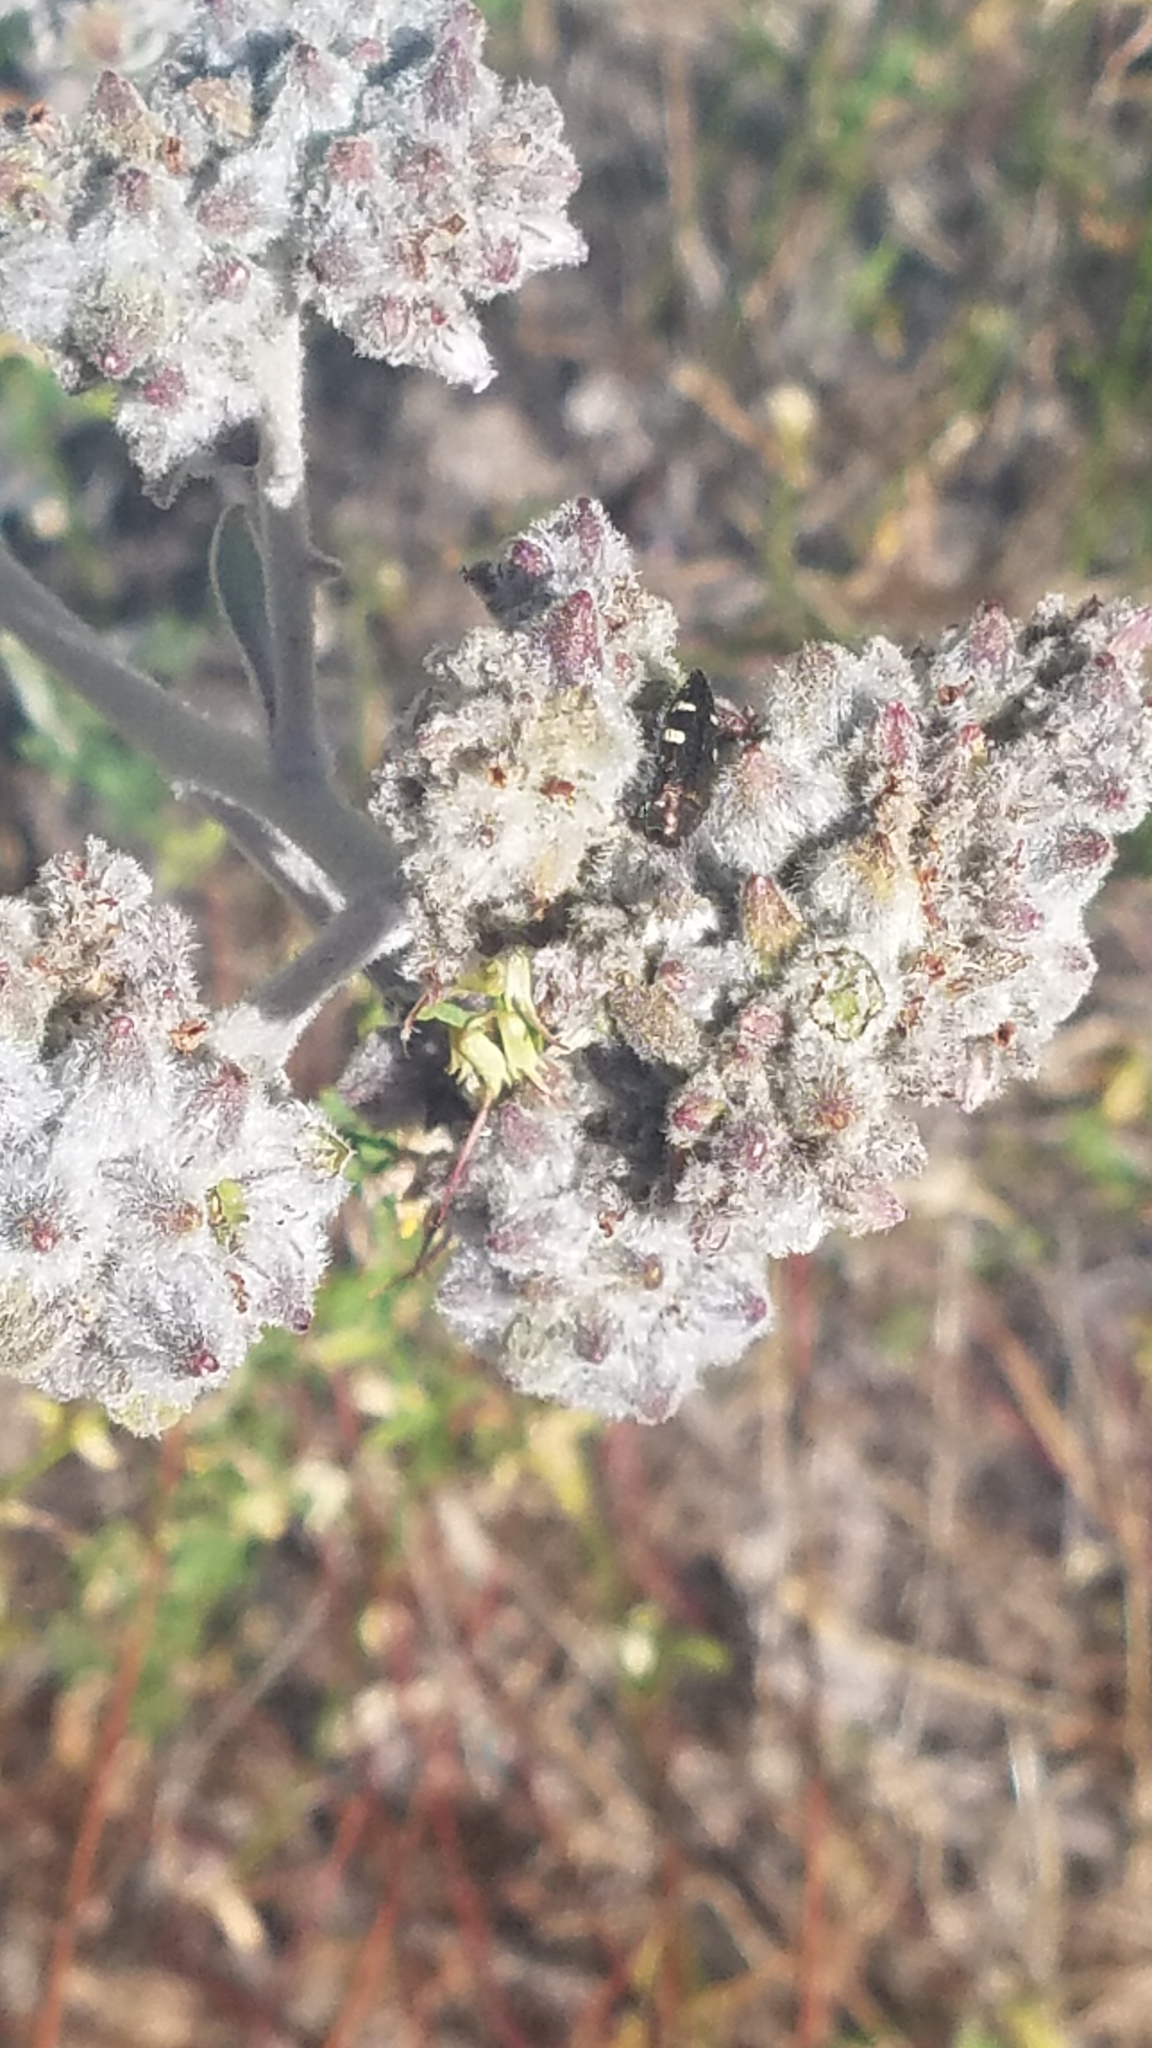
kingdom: Plantae
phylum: Tracheophyta
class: Magnoliopsida
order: Boraginales
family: Namaceae
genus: Eriodictyon
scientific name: Eriodictyon tomentosum
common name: Woolly yerba-santa
